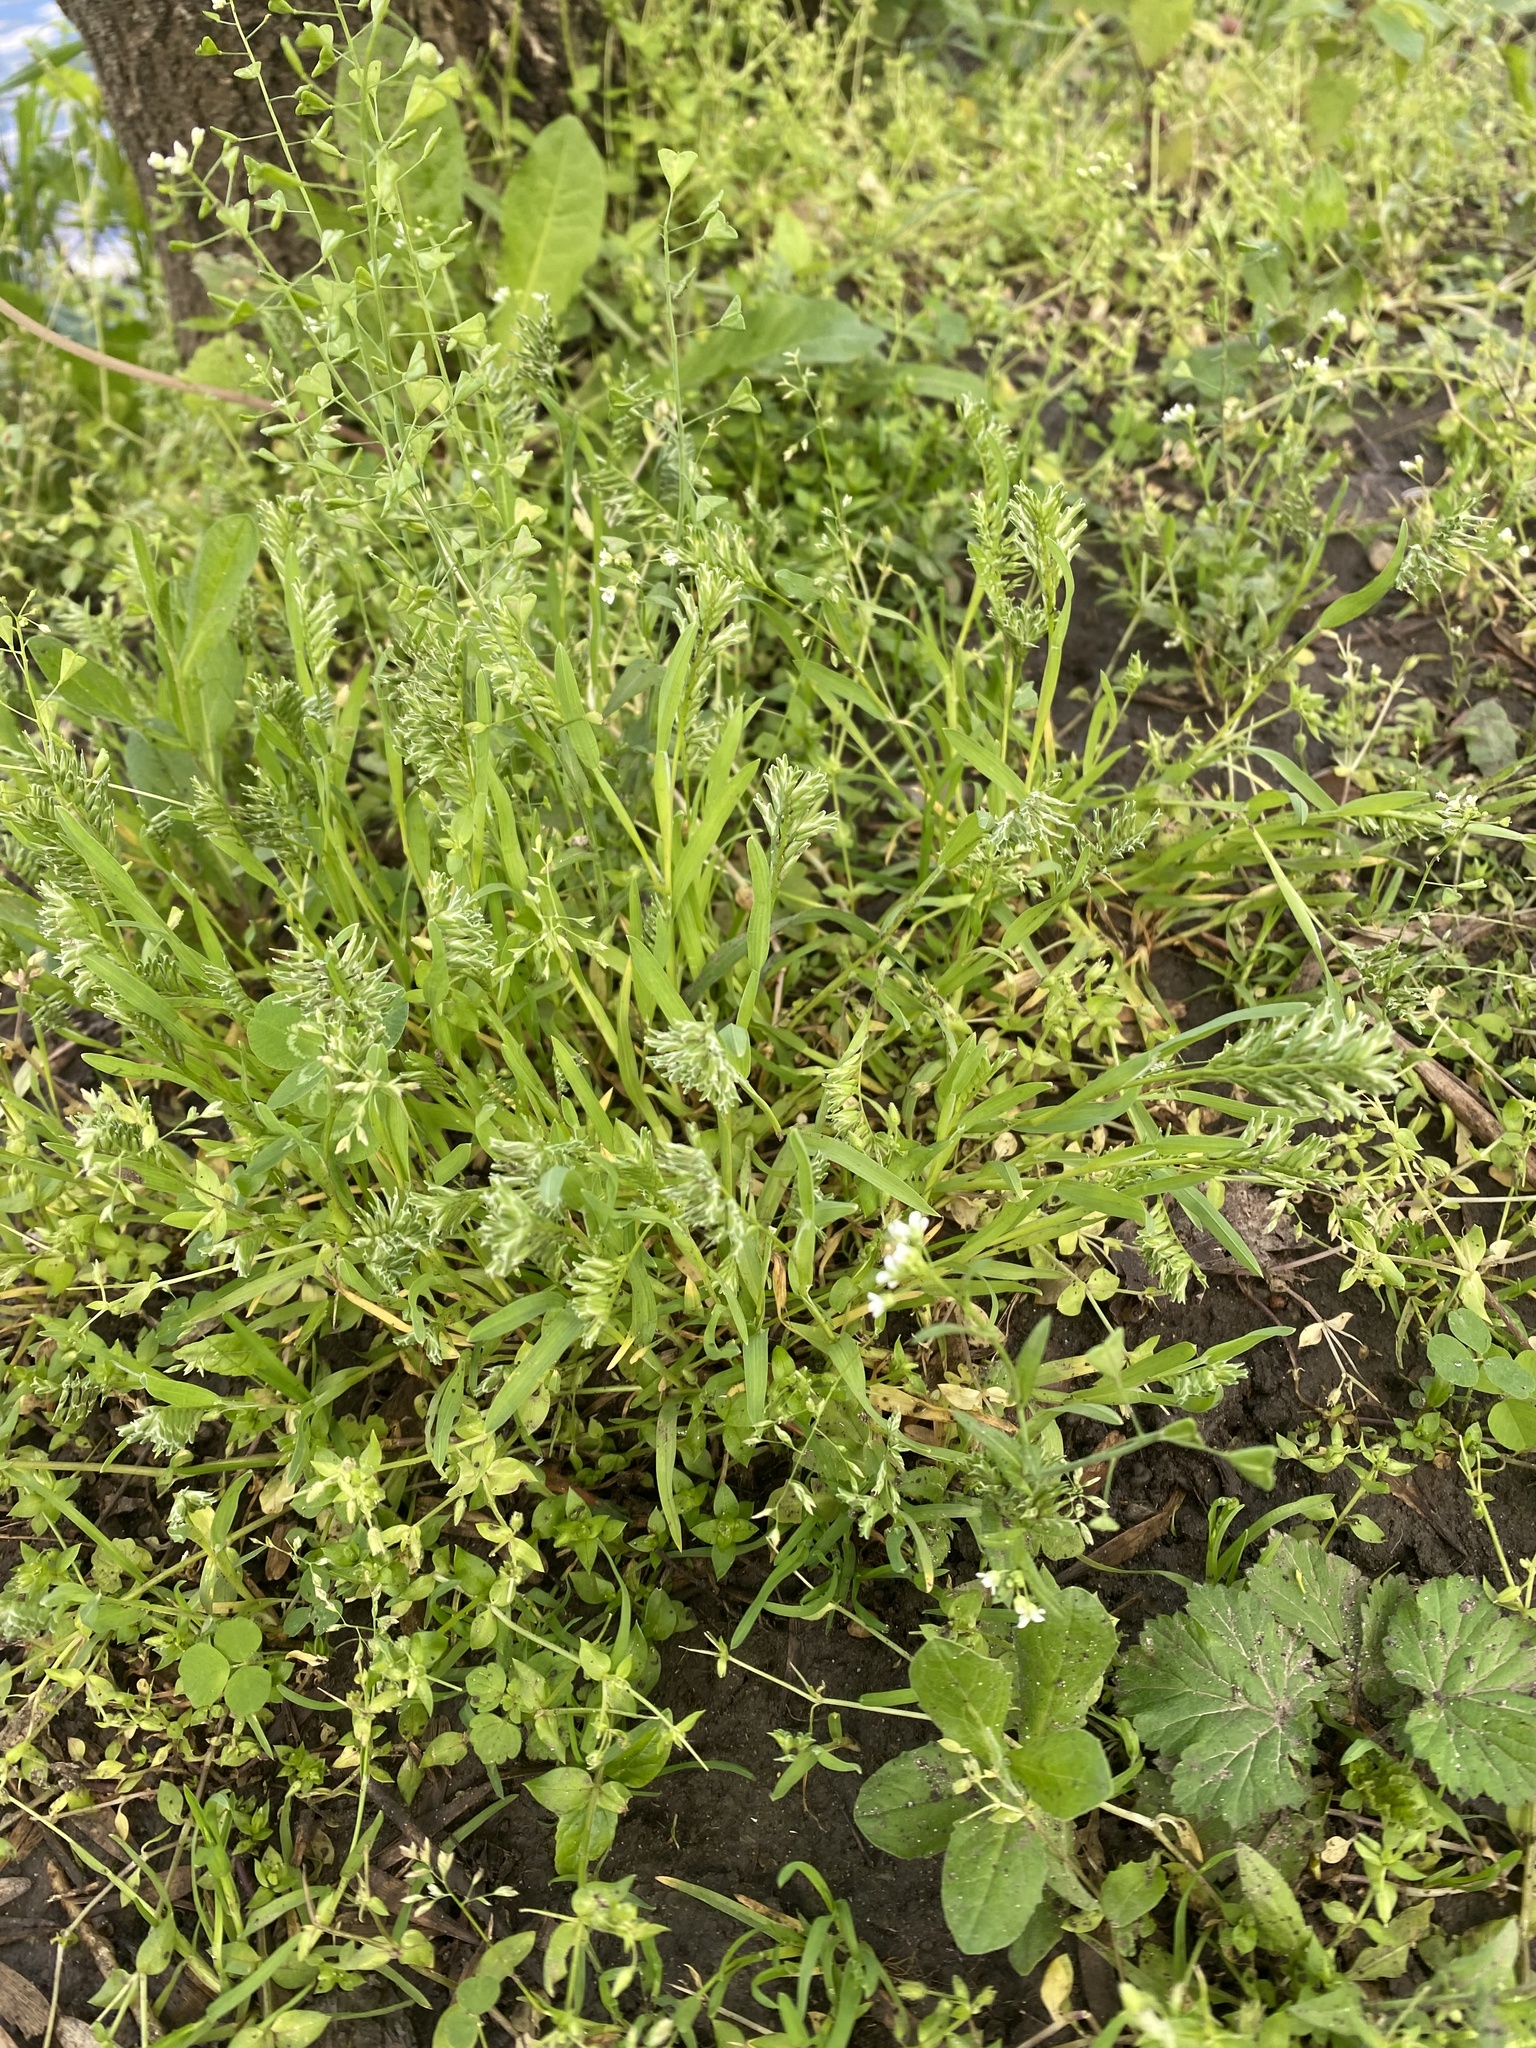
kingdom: Plantae
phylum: Tracheophyta
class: Liliopsida
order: Poales
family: Poaceae
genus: Sclerochloa
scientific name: Sclerochloa dura
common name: Common hardgrass
